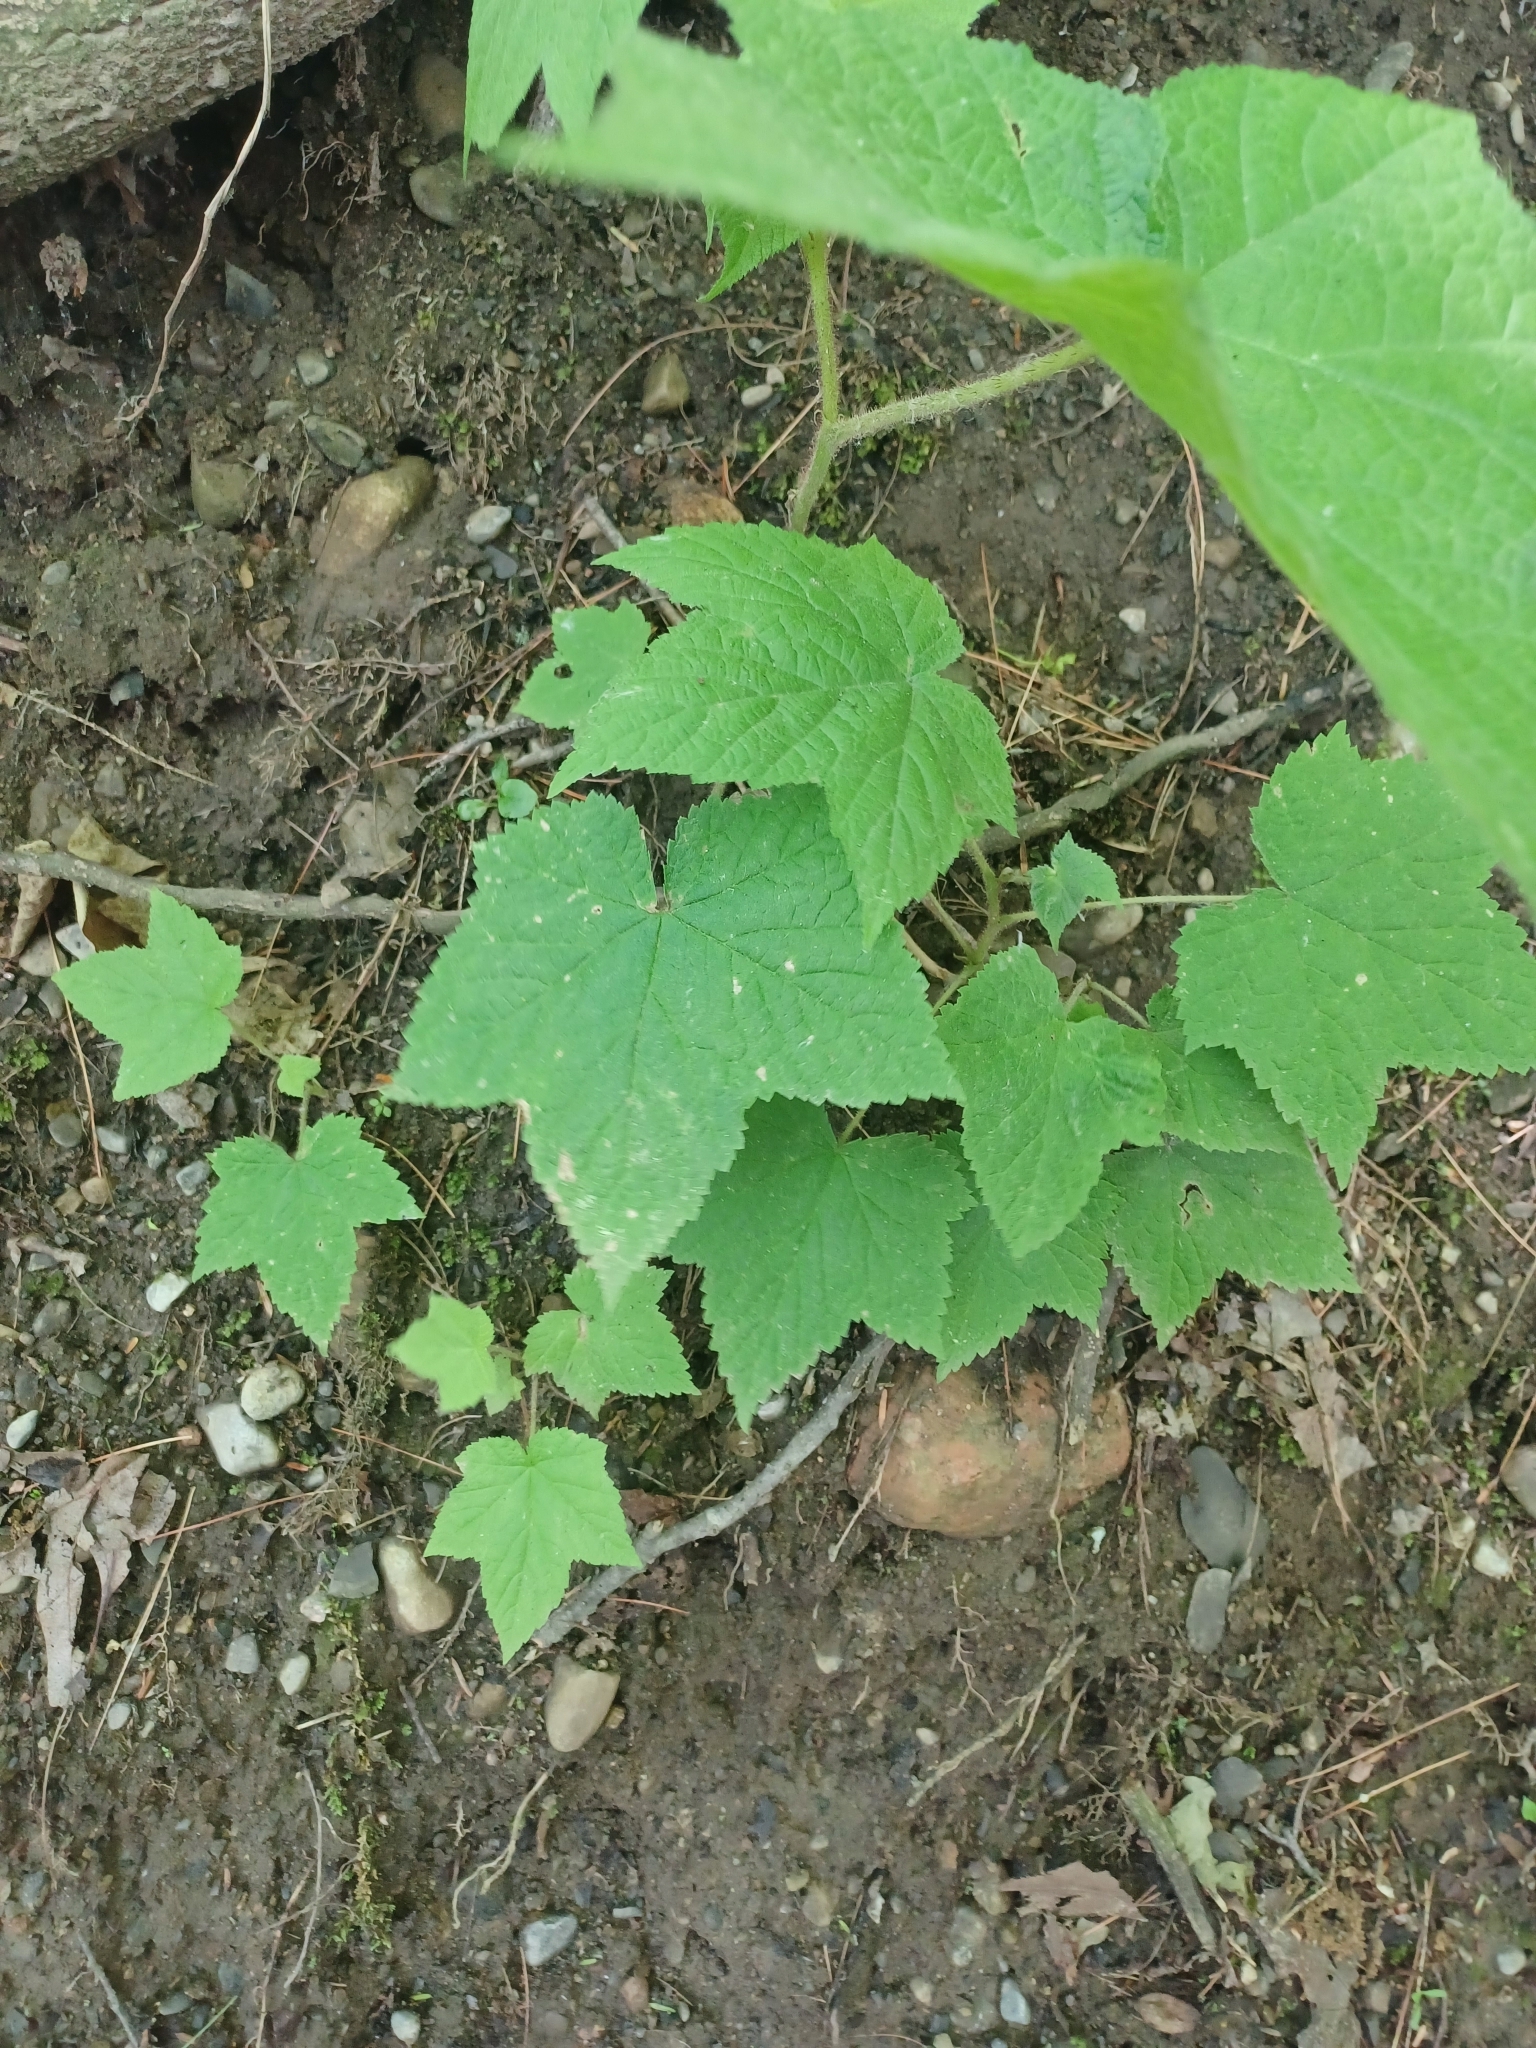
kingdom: Plantae
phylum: Tracheophyta
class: Magnoliopsida
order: Rosales
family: Rosaceae
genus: Rubus
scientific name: Rubus odoratus
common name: Purple-flowered raspberry
